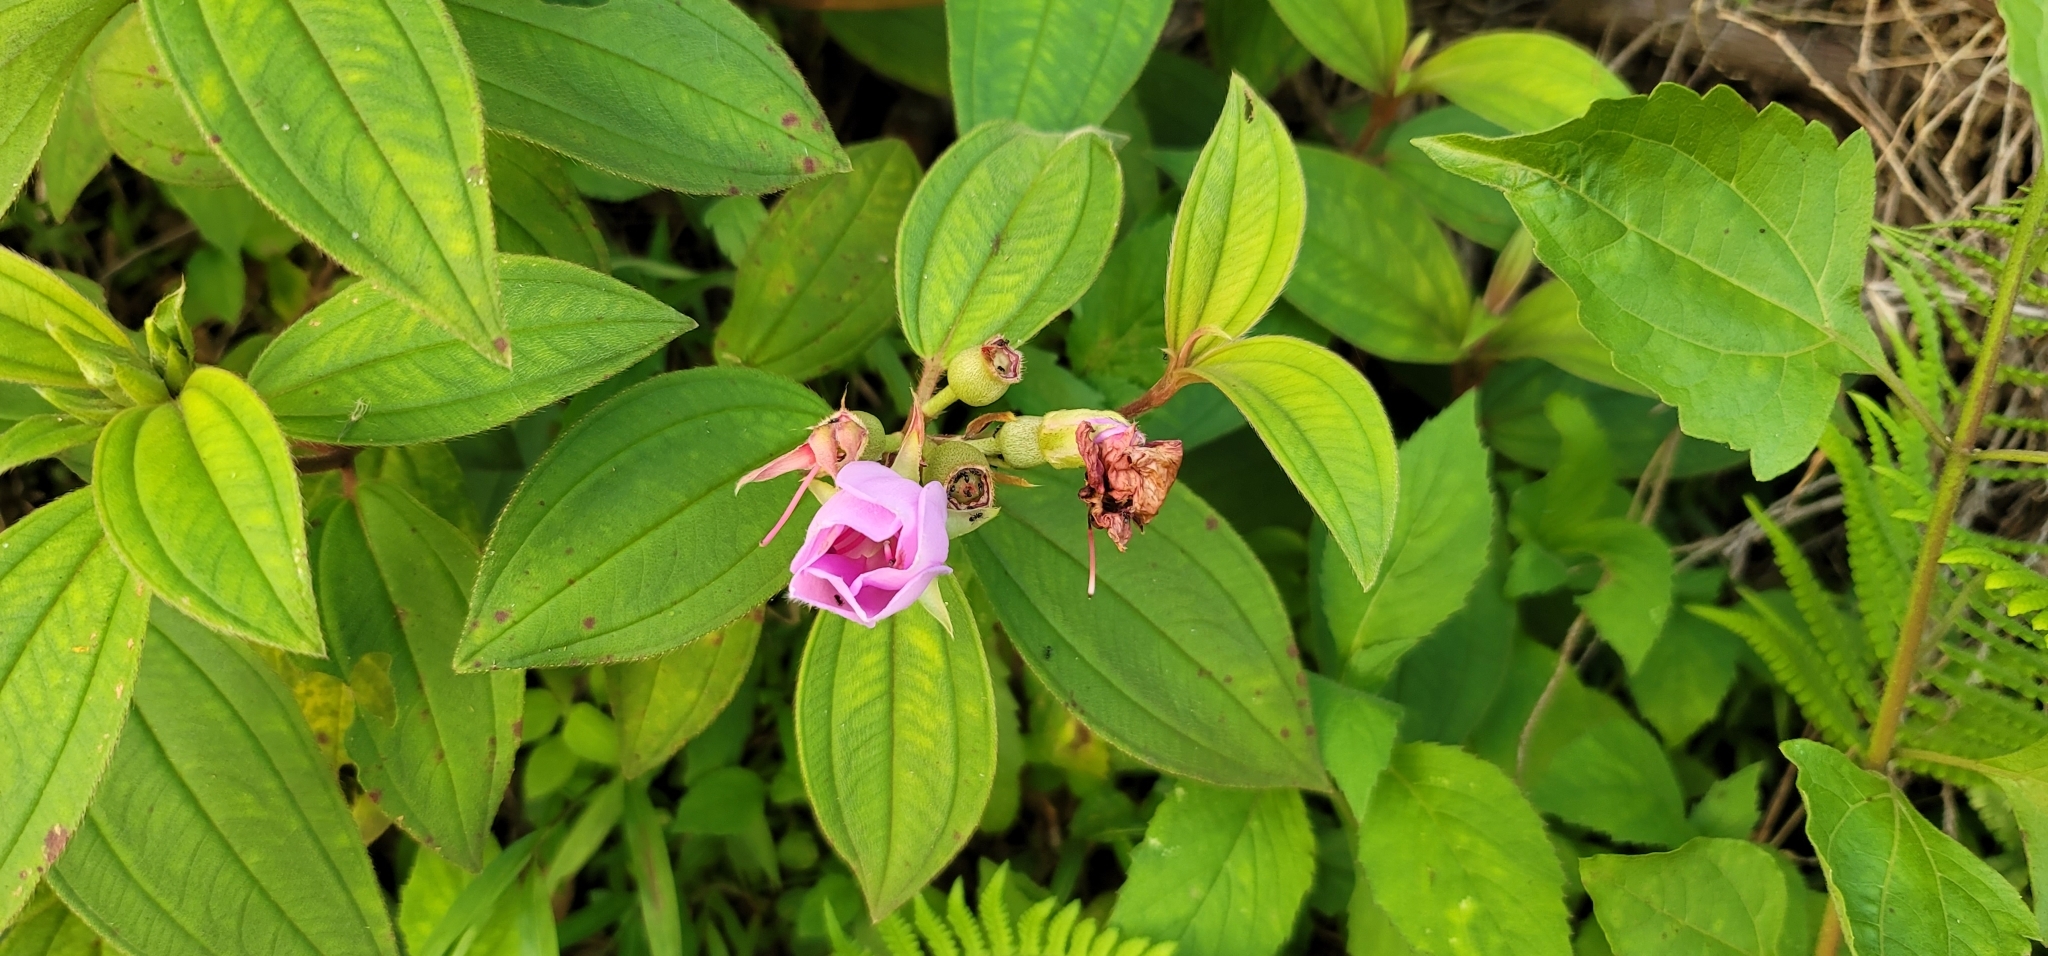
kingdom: Plantae
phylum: Tracheophyta
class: Magnoliopsida
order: Myrtales
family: Melastomataceae
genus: Melastoma
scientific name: Melastoma malabathricum
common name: Indian-rhododendron
